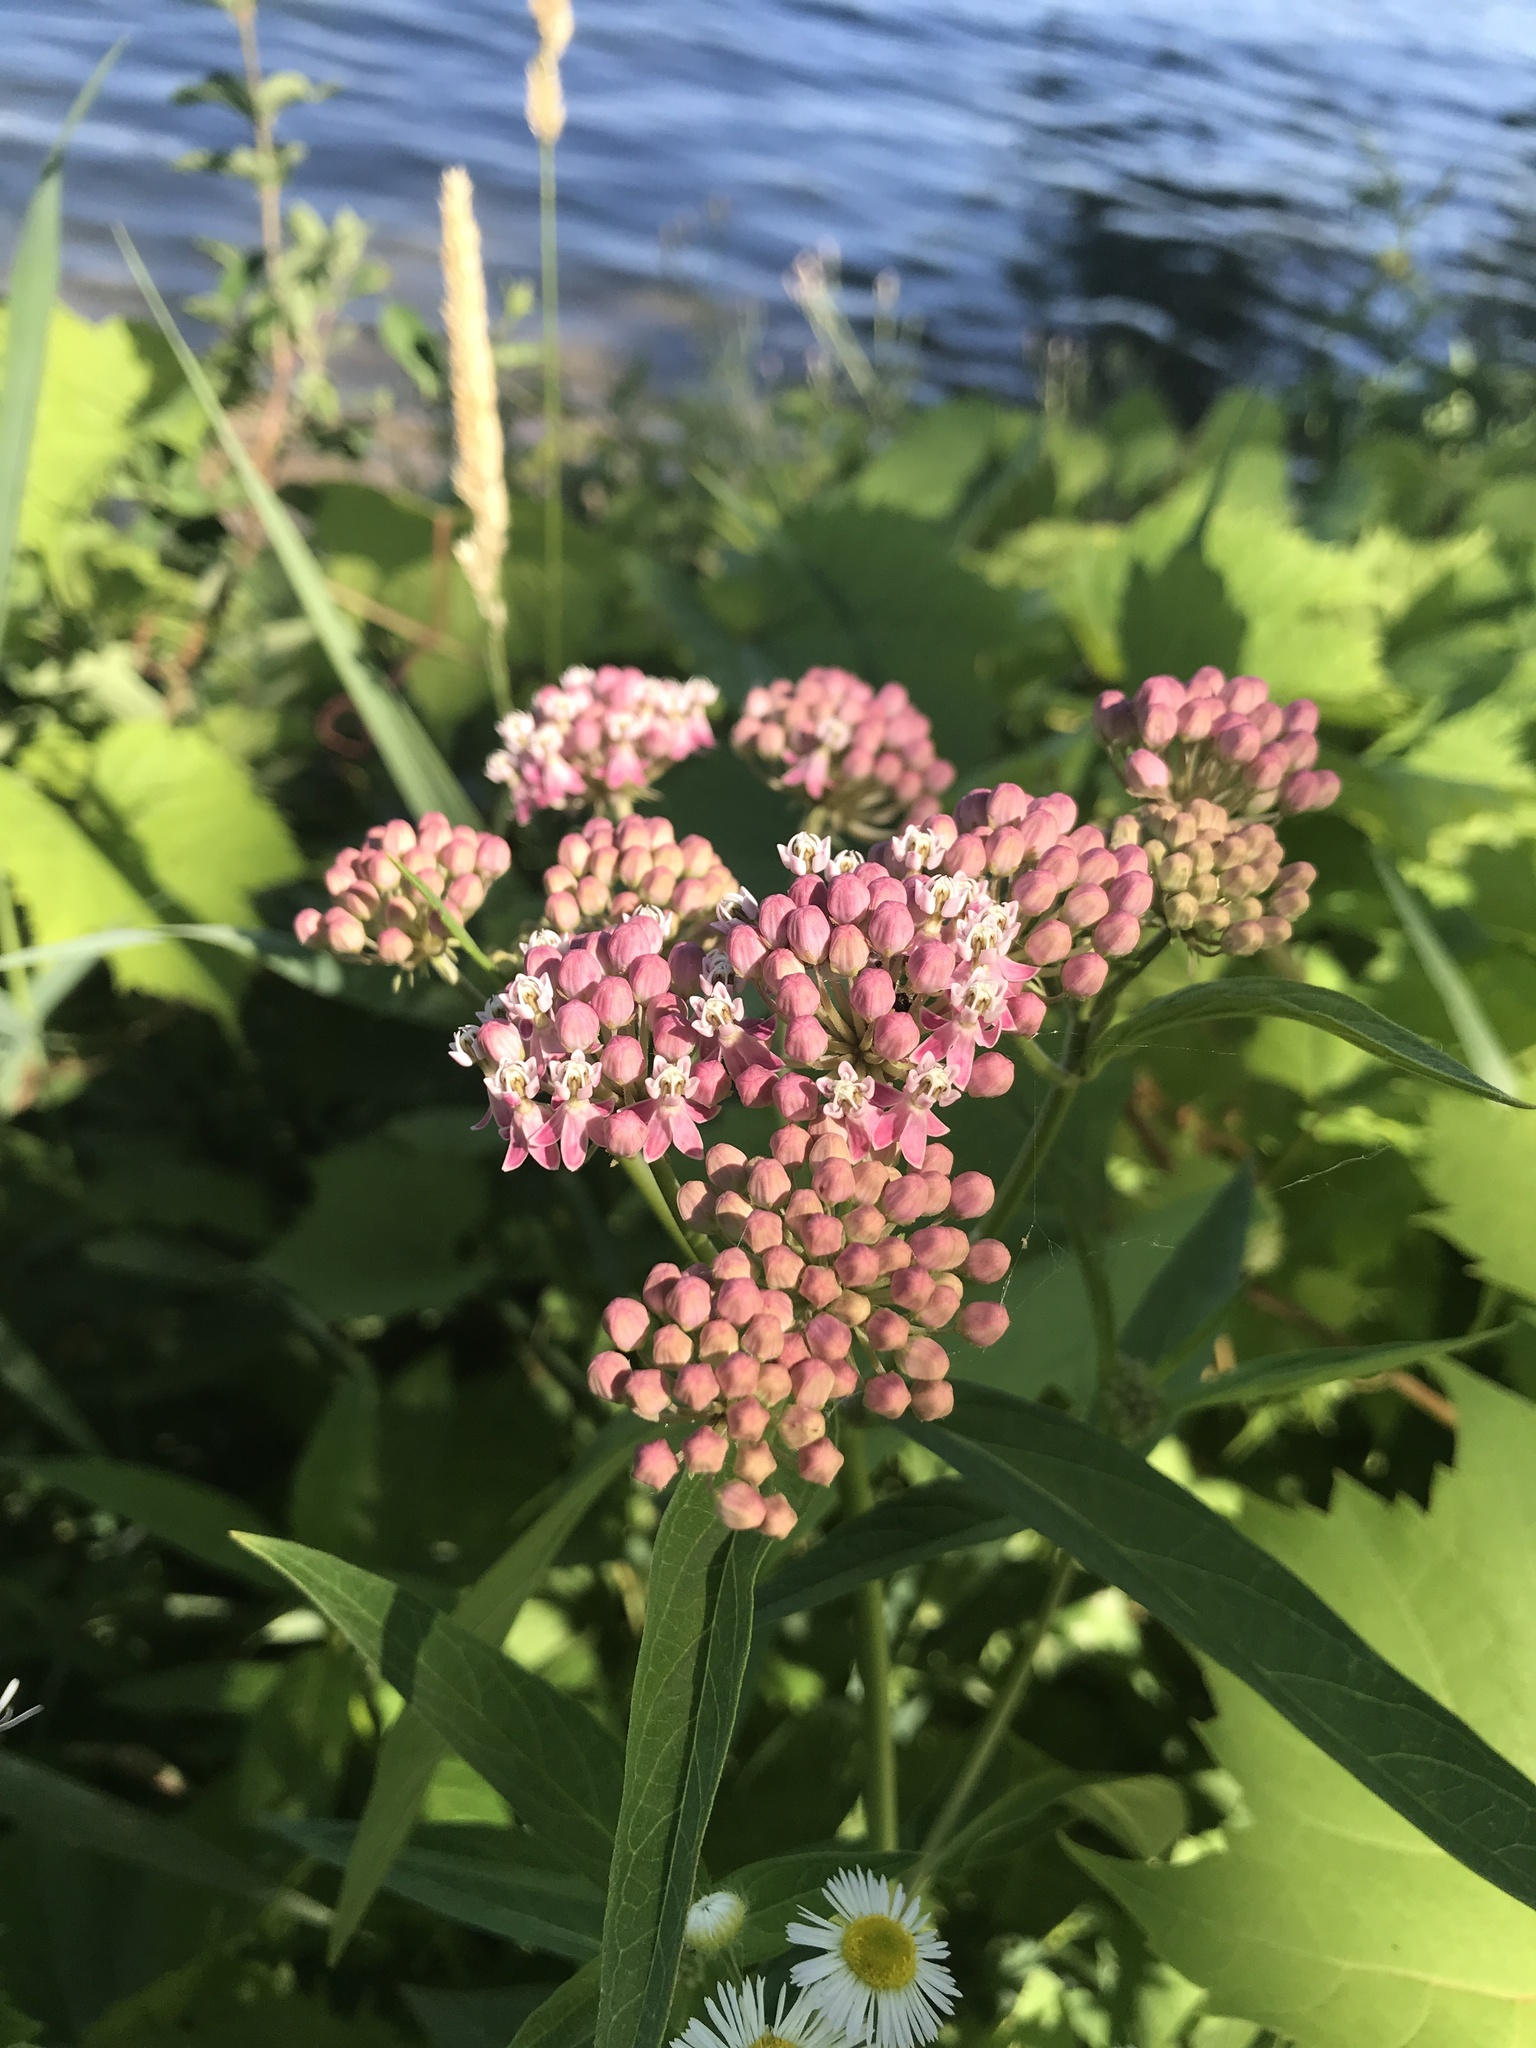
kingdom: Plantae
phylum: Tracheophyta
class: Magnoliopsida
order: Gentianales
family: Apocynaceae
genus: Asclepias
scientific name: Asclepias incarnata
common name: Swamp milkweed
